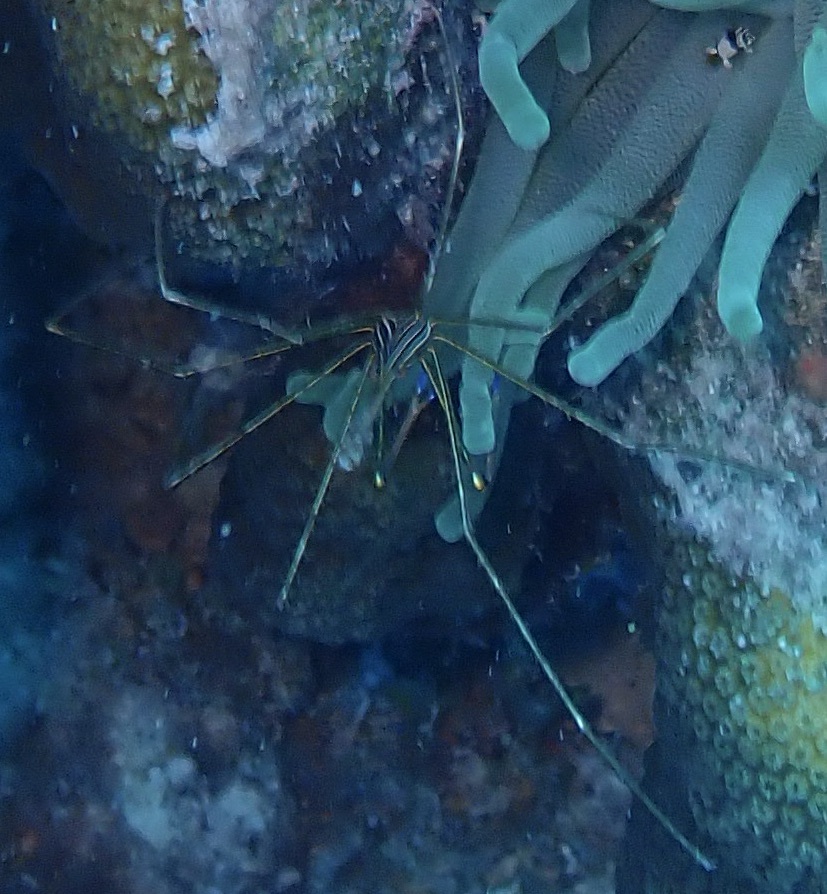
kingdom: Animalia
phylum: Arthropoda
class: Malacostraca
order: Decapoda
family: Inachoididae
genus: Stenorhynchus
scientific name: Stenorhynchus seticornis
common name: Arrow crab
